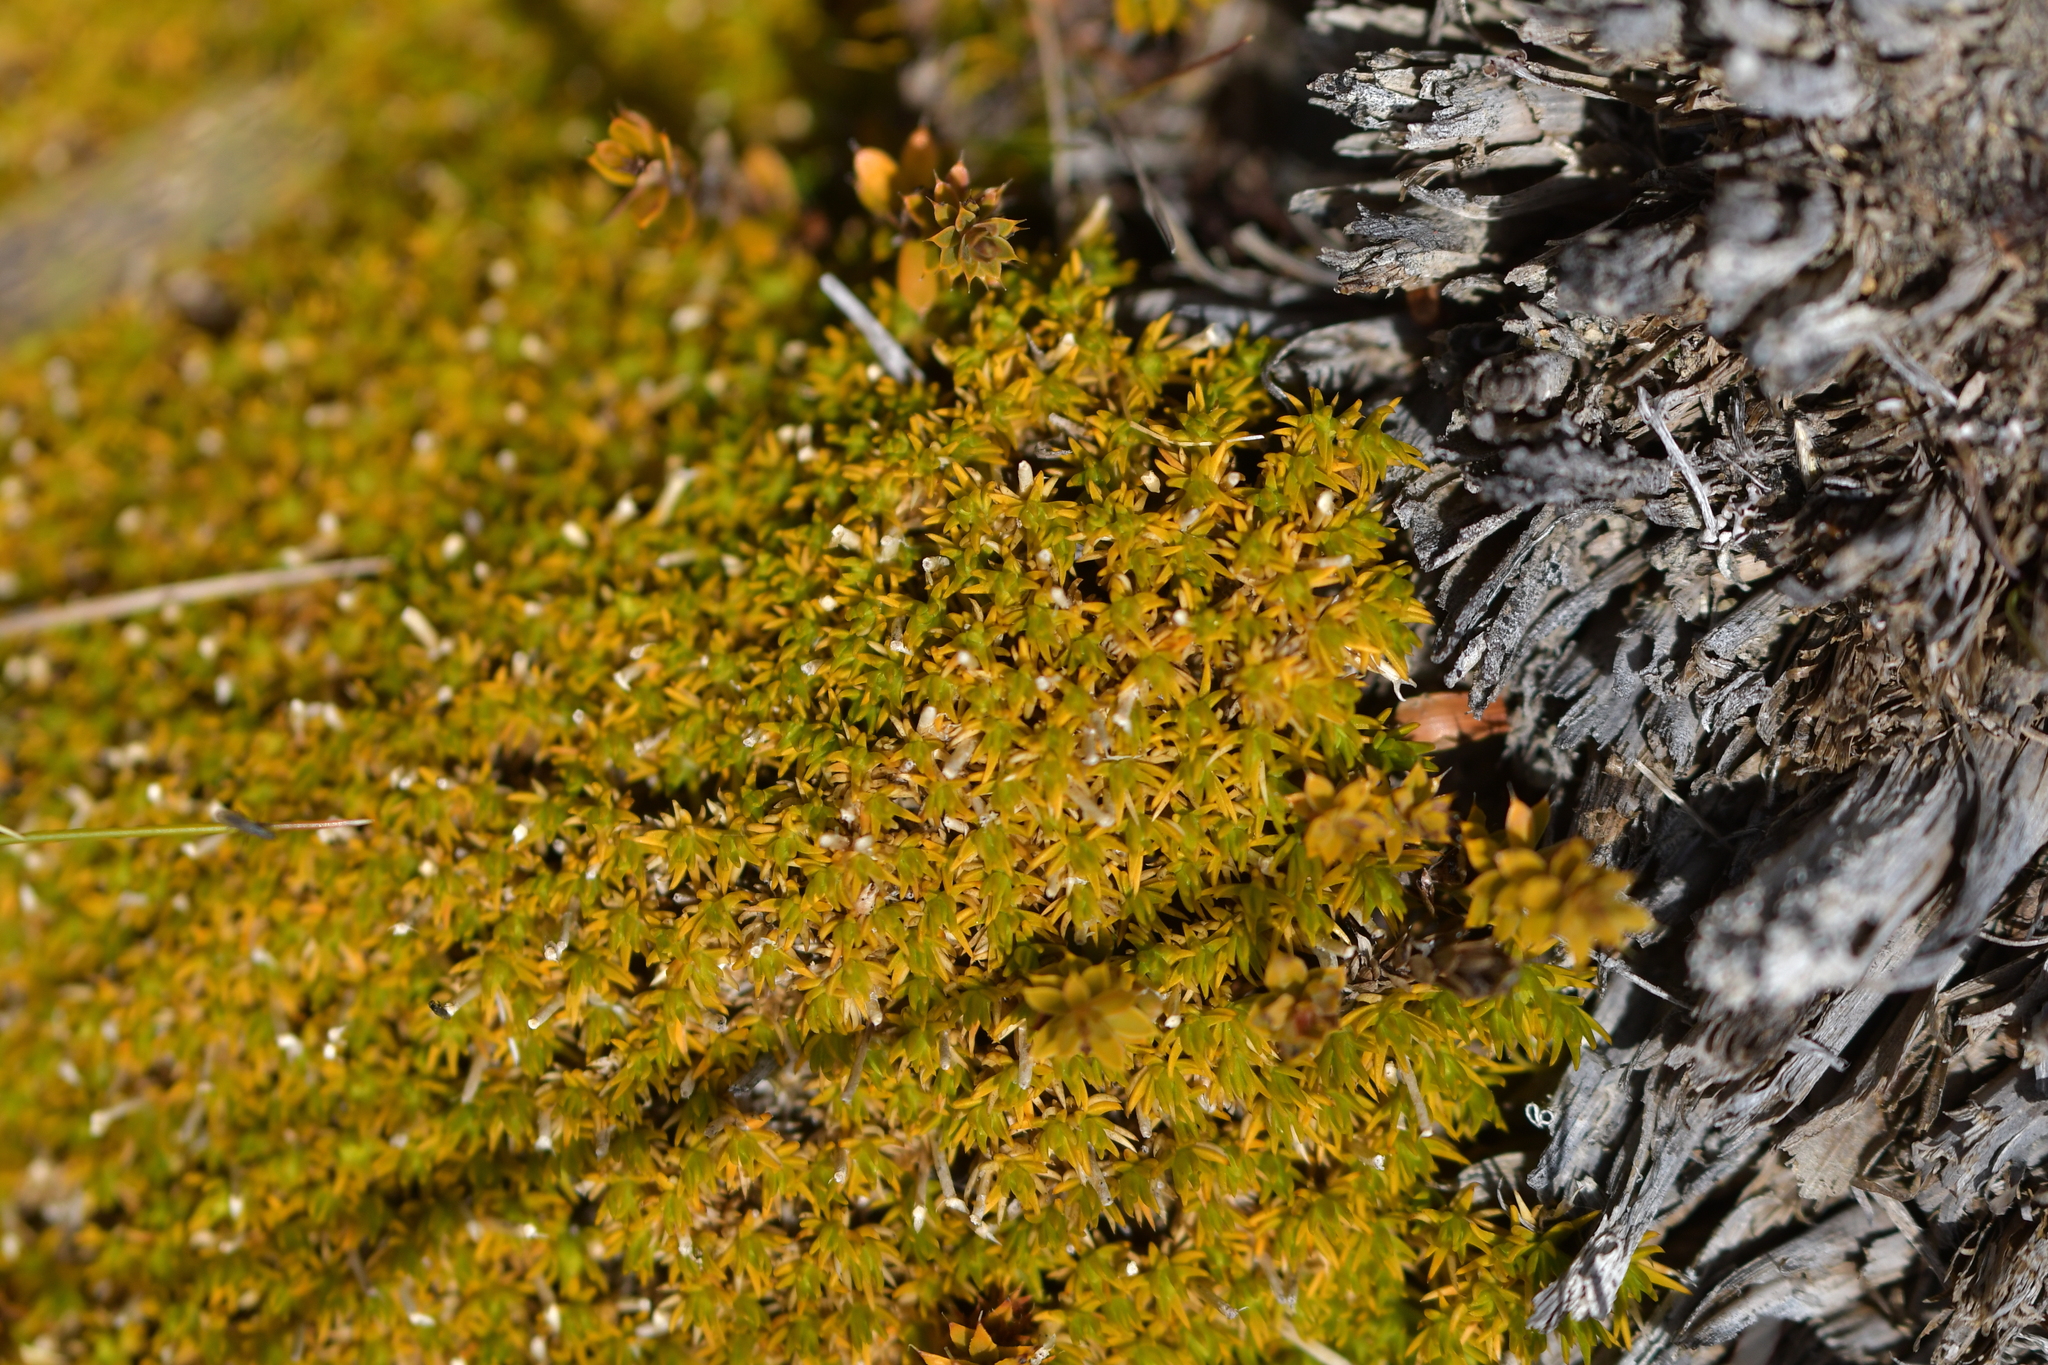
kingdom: Plantae
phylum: Tracheophyta
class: Magnoliopsida
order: Caryophyllales
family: Caryophyllaceae
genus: Scleranthus
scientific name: Scleranthus uniflorus
